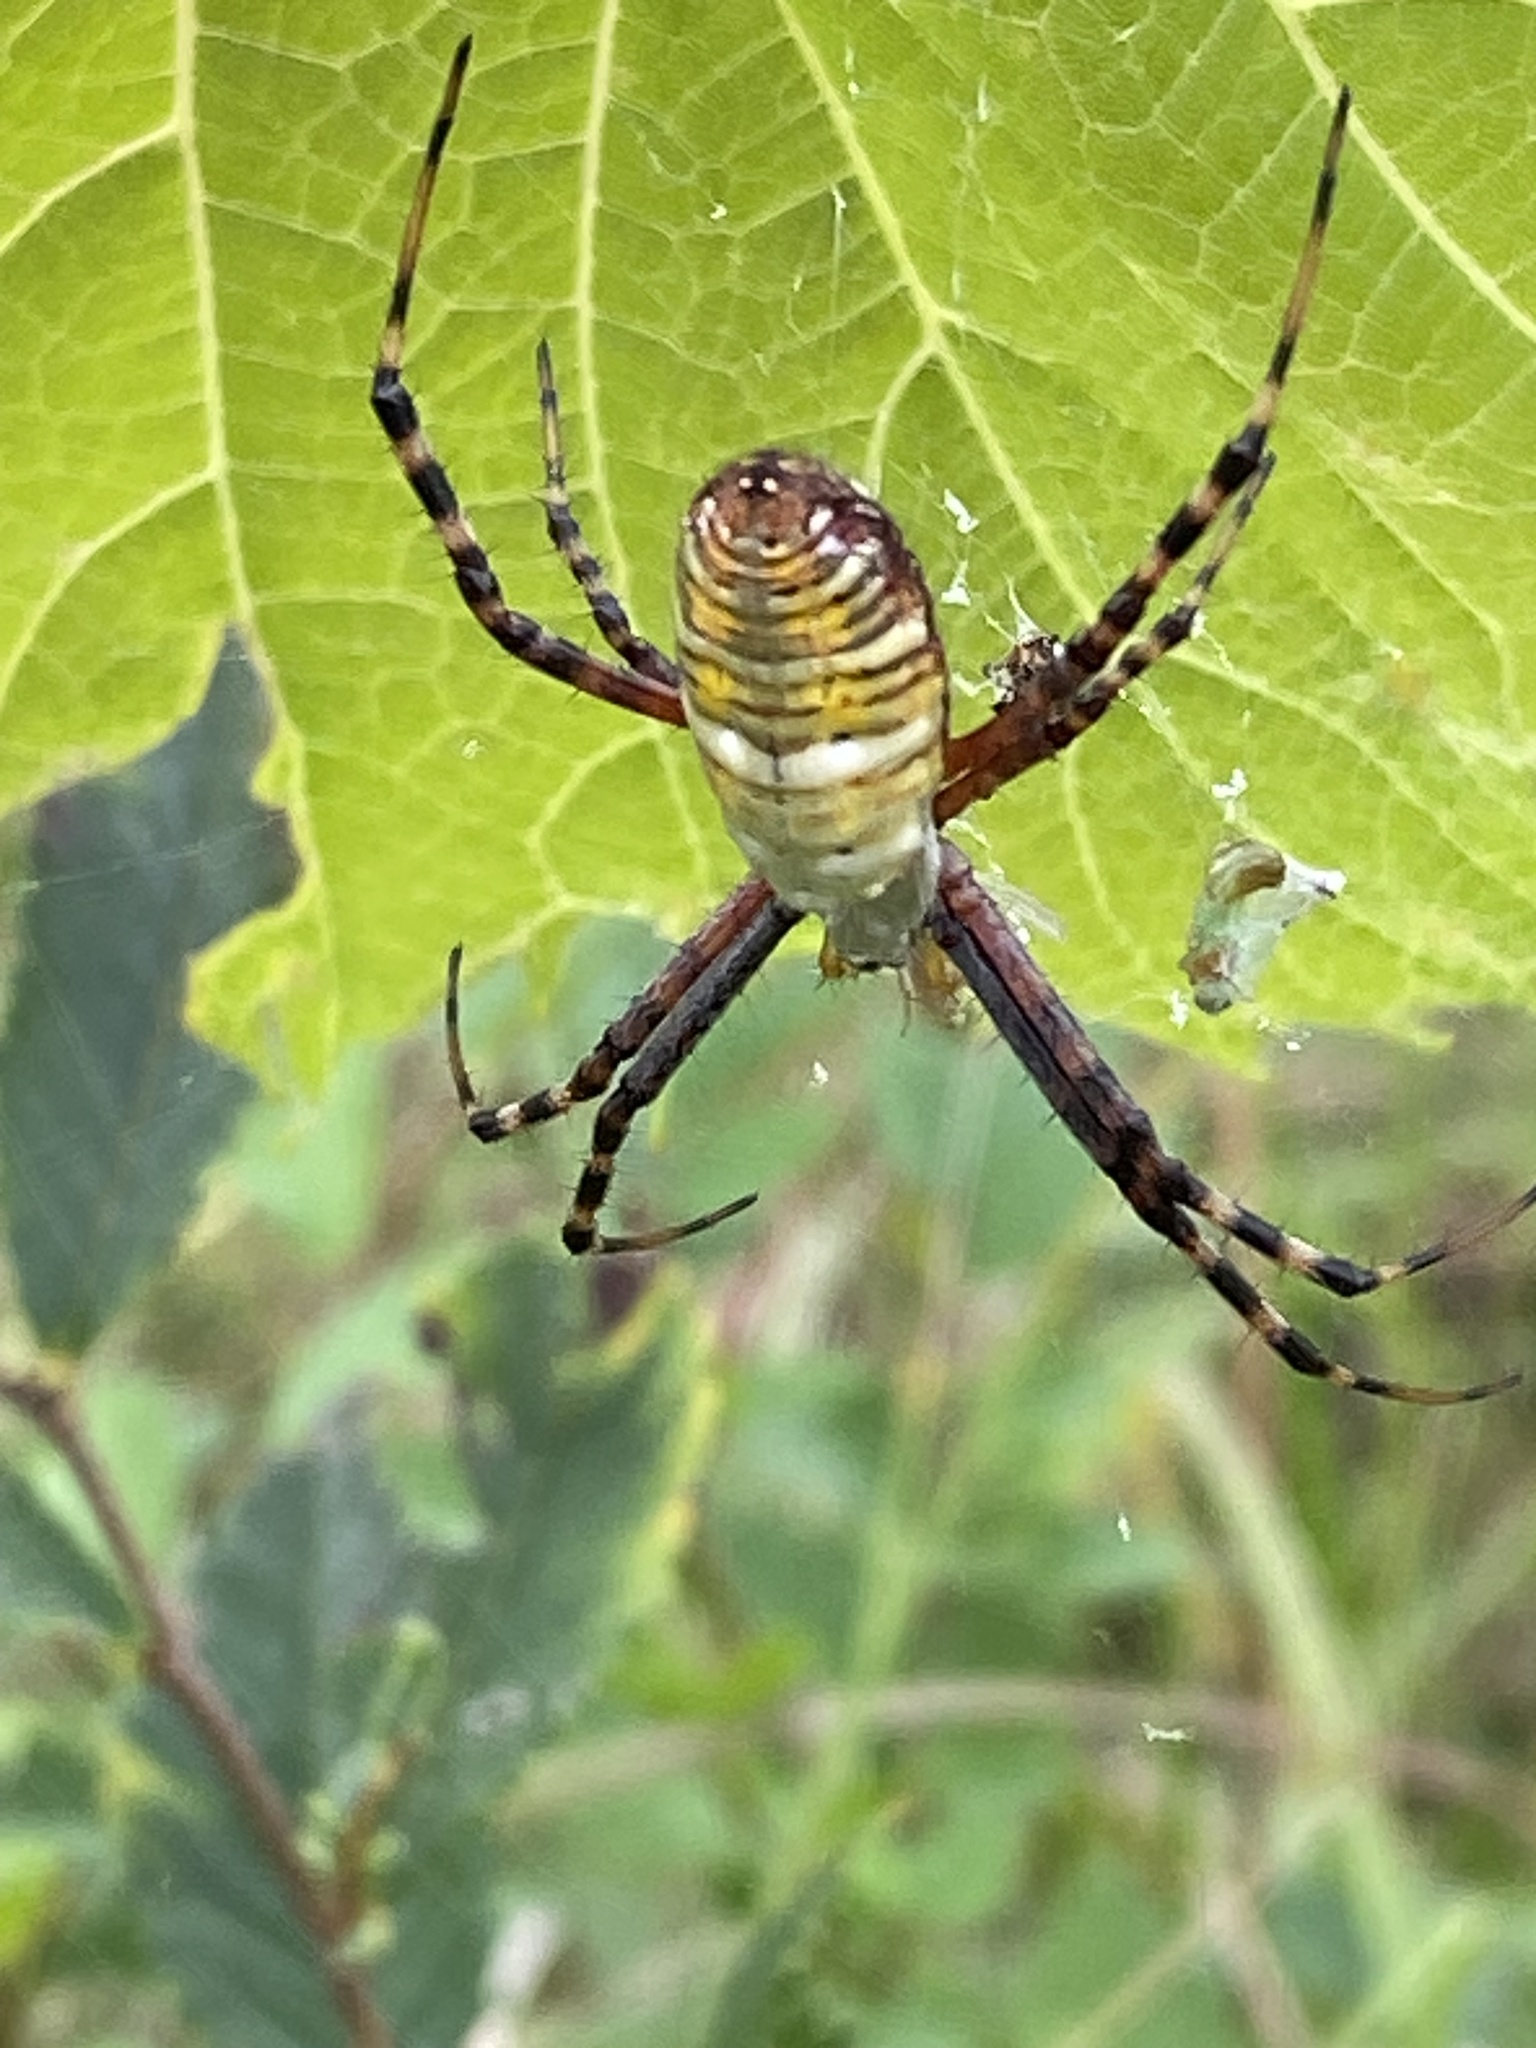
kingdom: Animalia
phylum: Arthropoda
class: Arachnida
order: Araneae
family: Araneidae
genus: Argiope
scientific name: Argiope trifasciata
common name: Banded garden spider
